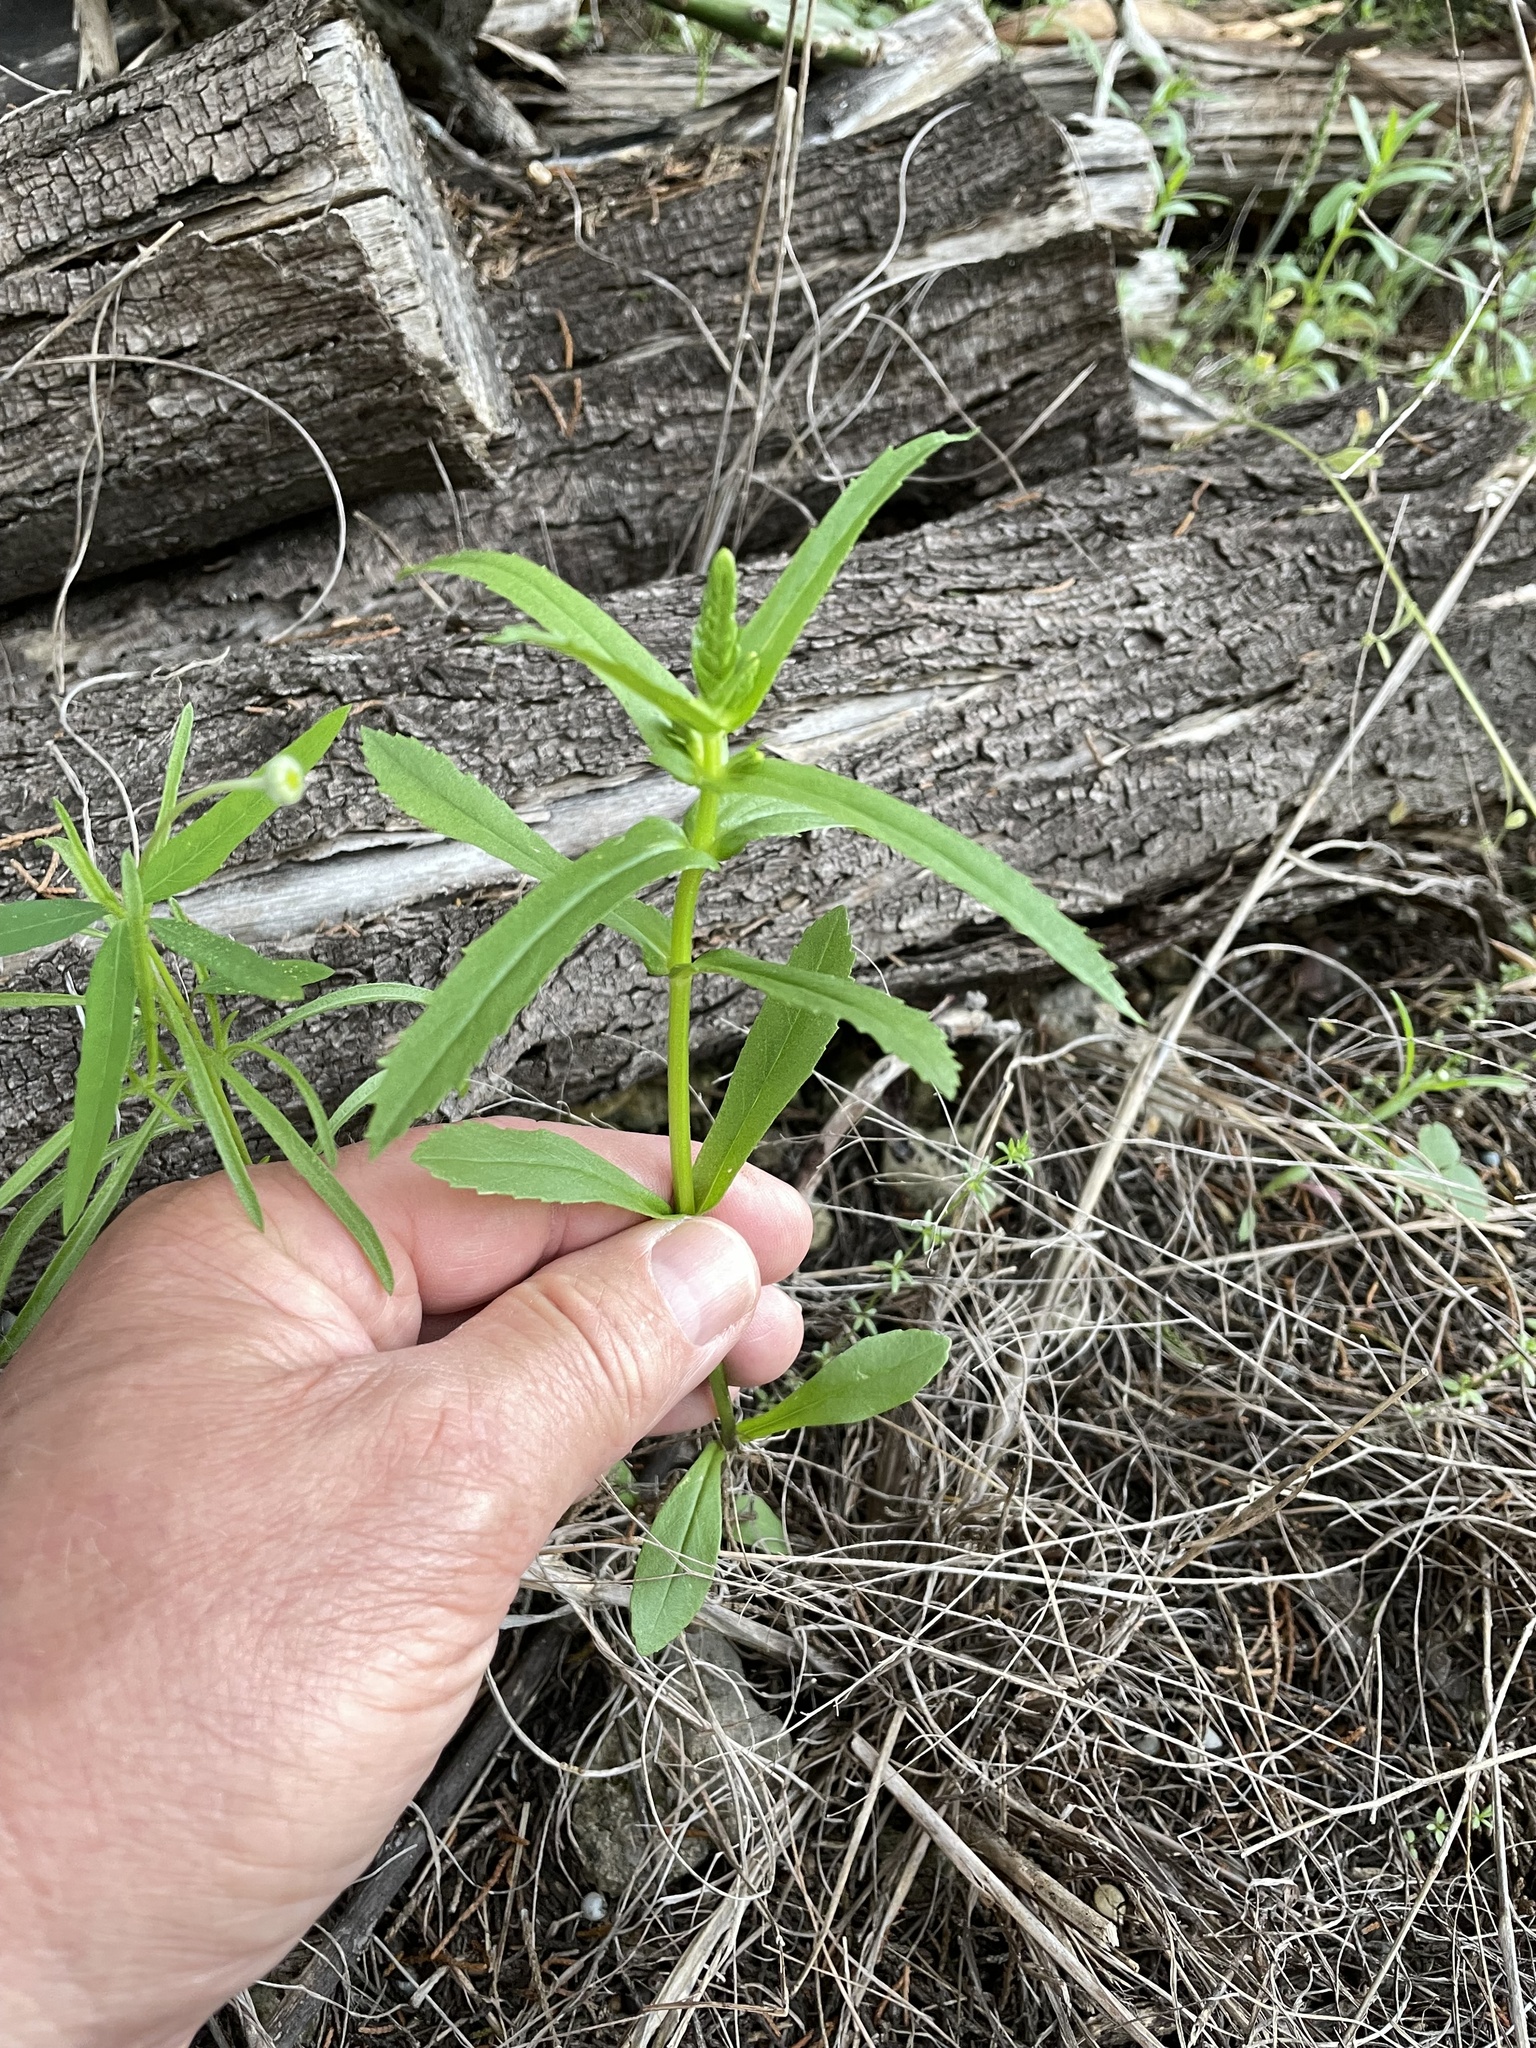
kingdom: Plantae
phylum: Tracheophyta
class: Magnoliopsida
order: Lamiales
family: Lamiaceae
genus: Warnockia
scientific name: Warnockia scutellarioides
